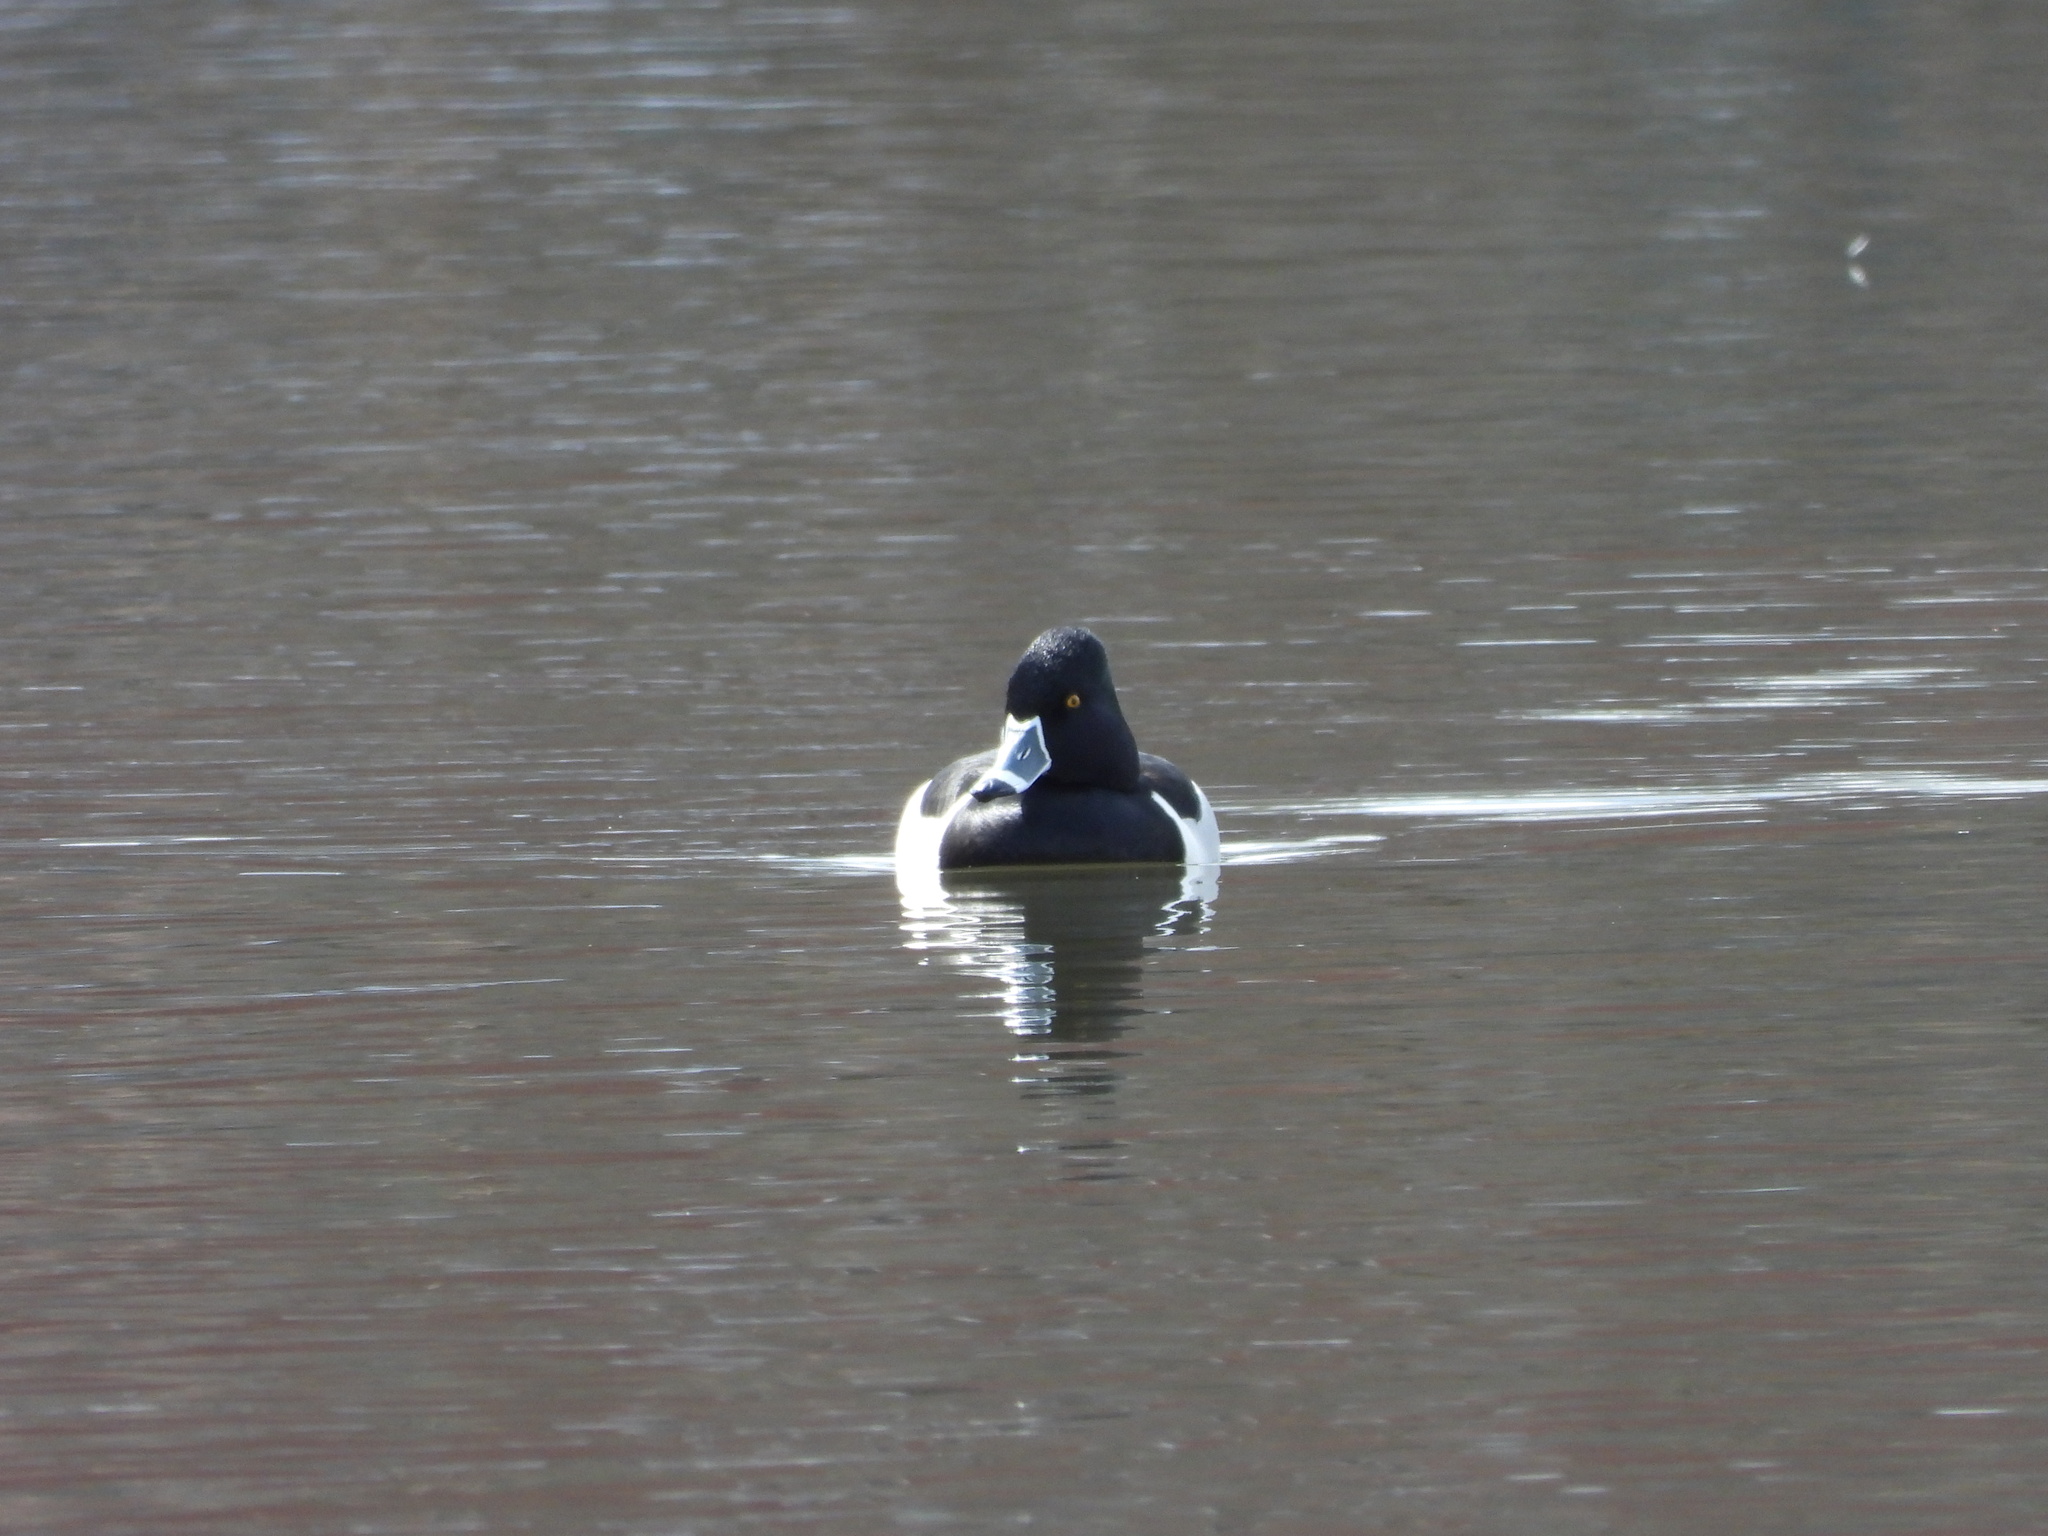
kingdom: Animalia
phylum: Chordata
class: Aves
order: Anseriformes
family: Anatidae
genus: Aythya
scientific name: Aythya collaris
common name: Ring-necked duck
